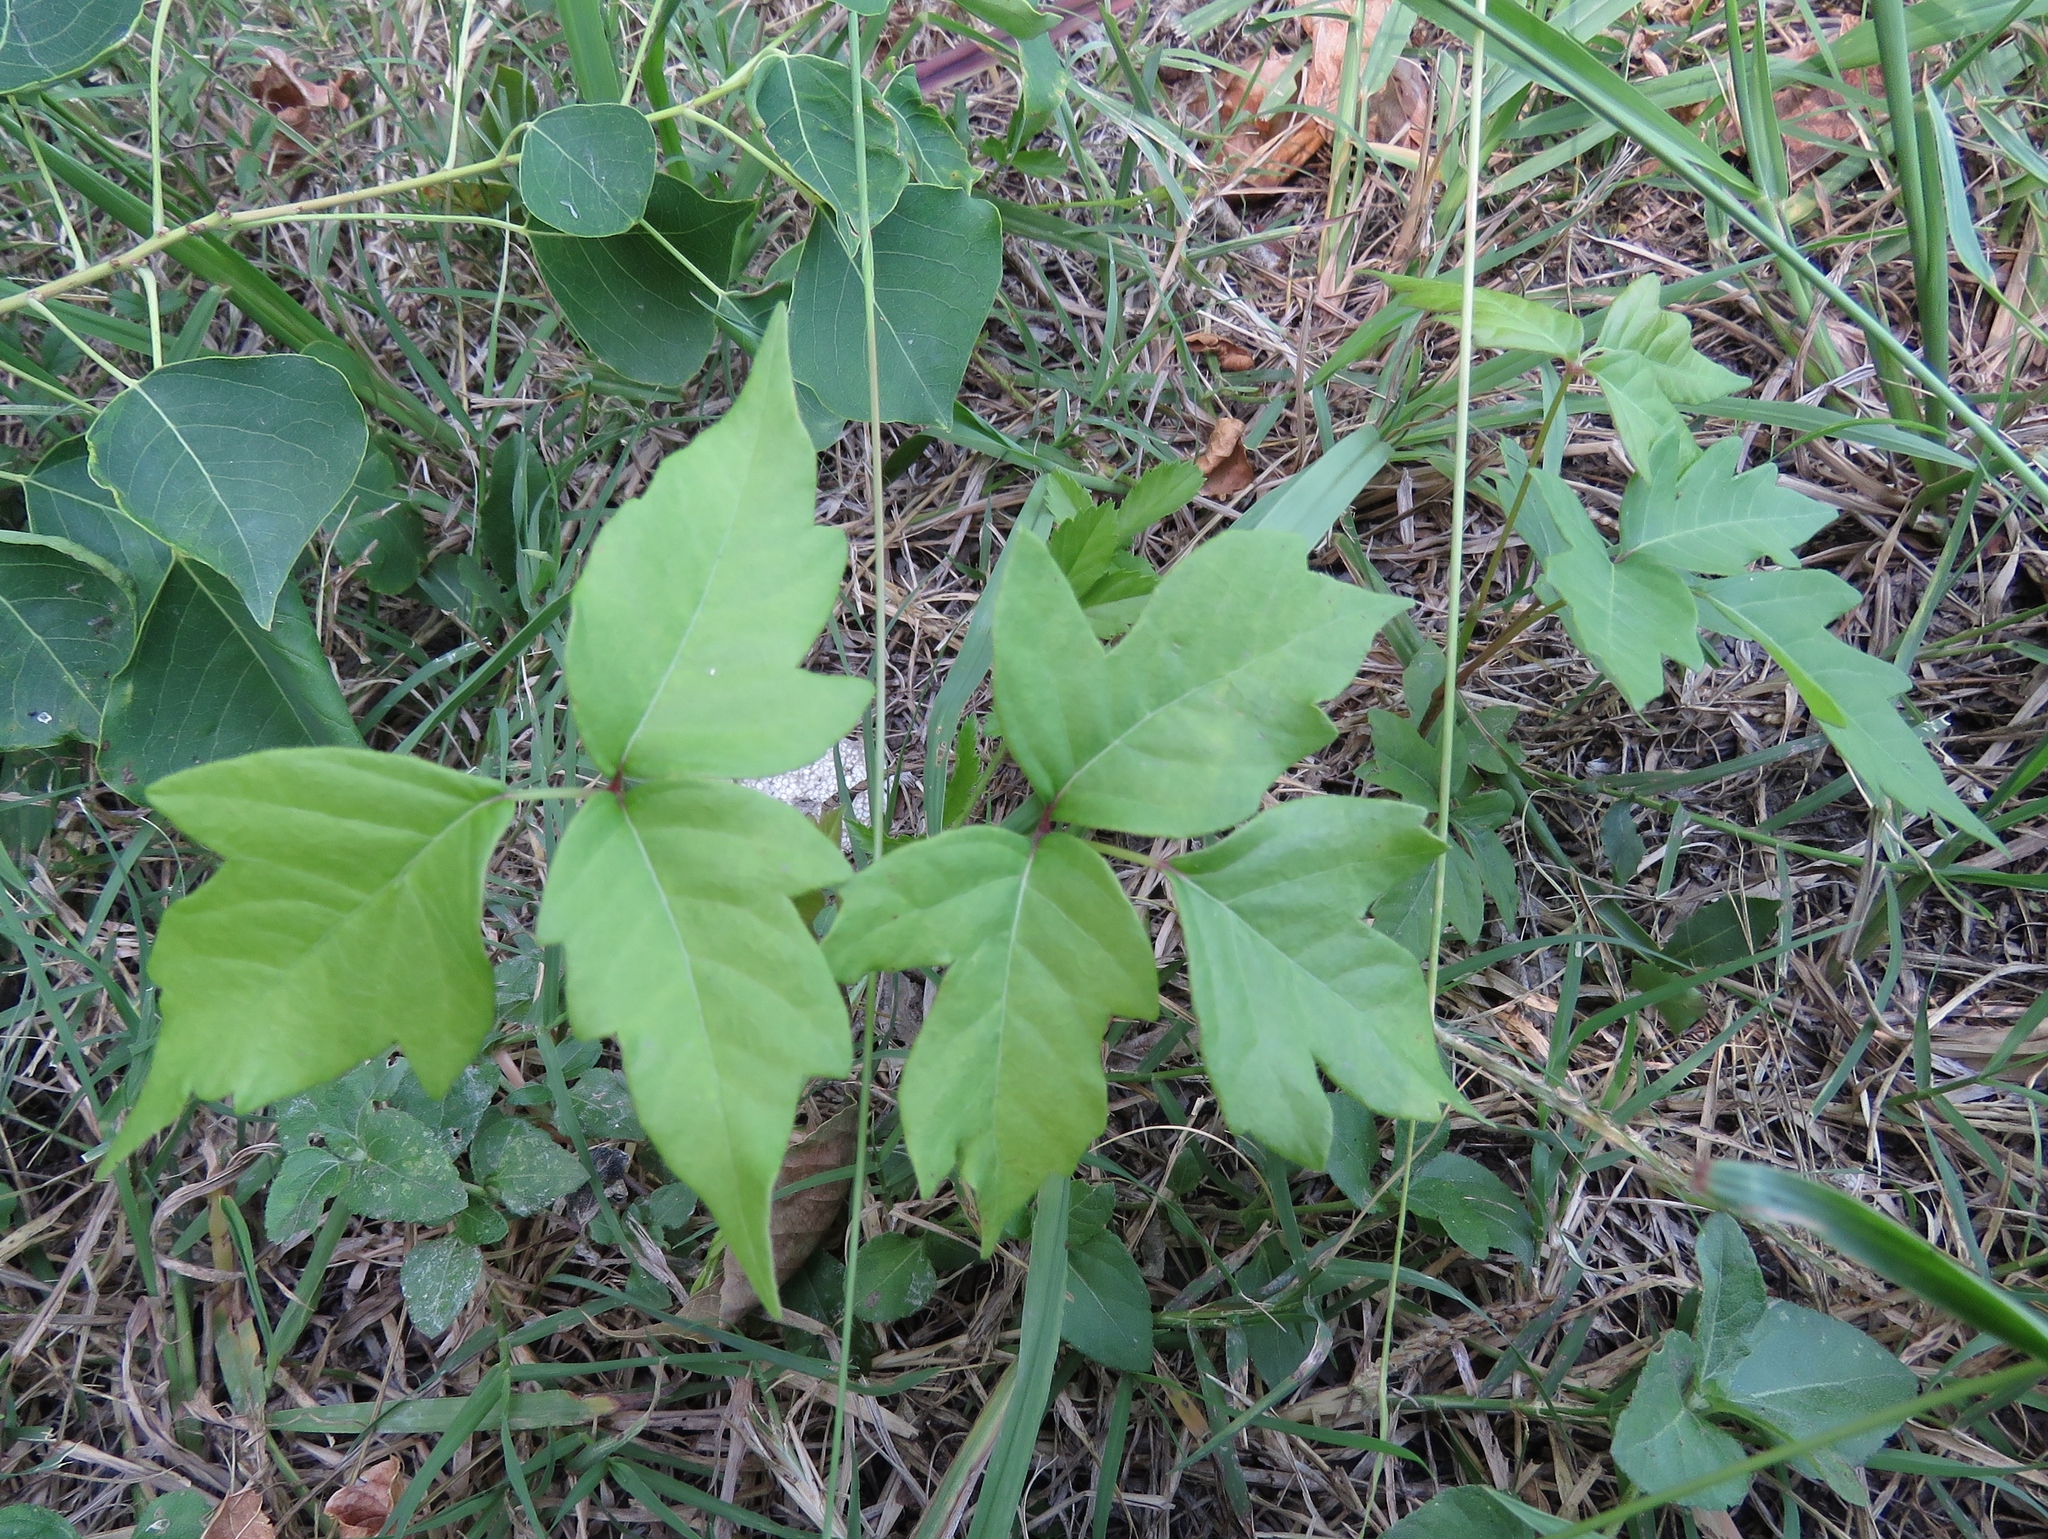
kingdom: Plantae
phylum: Tracheophyta
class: Magnoliopsida
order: Sapindales
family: Anacardiaceae
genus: Toxicodendron
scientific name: Toxicodendron radicans
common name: Poison ivy
